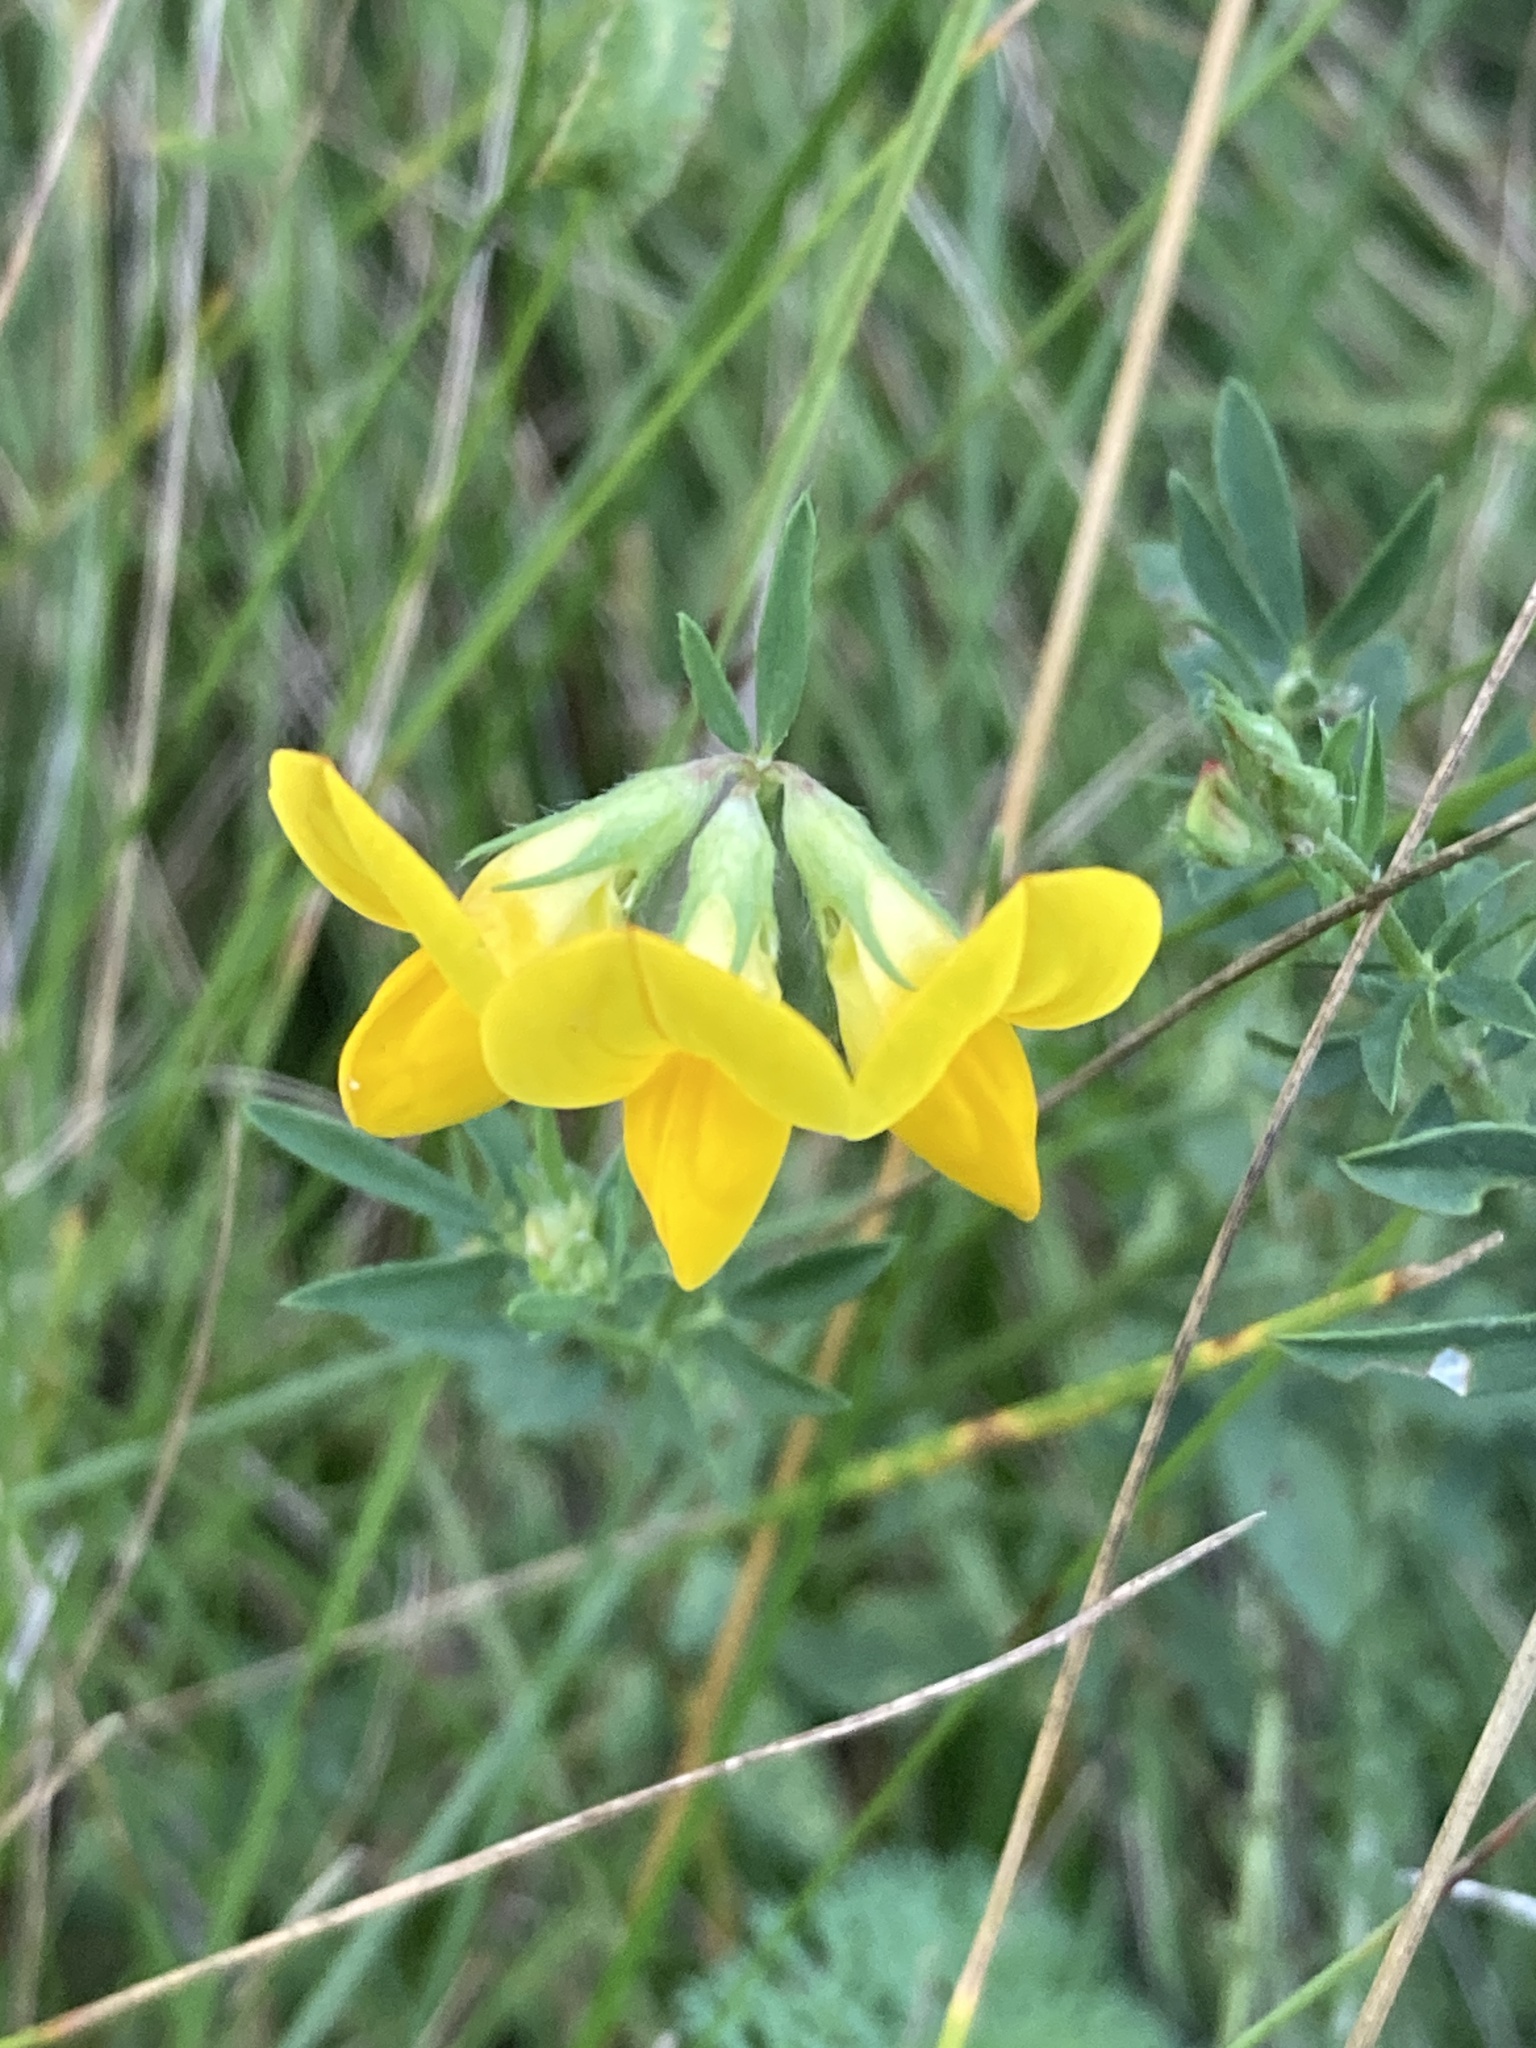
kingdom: Plantae
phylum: Tracheophyta
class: Magnoliopsida
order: Fabales
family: Fabaceae
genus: Lotus
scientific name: Lotus corniculatus
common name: Common bird's-foot-trefoil
